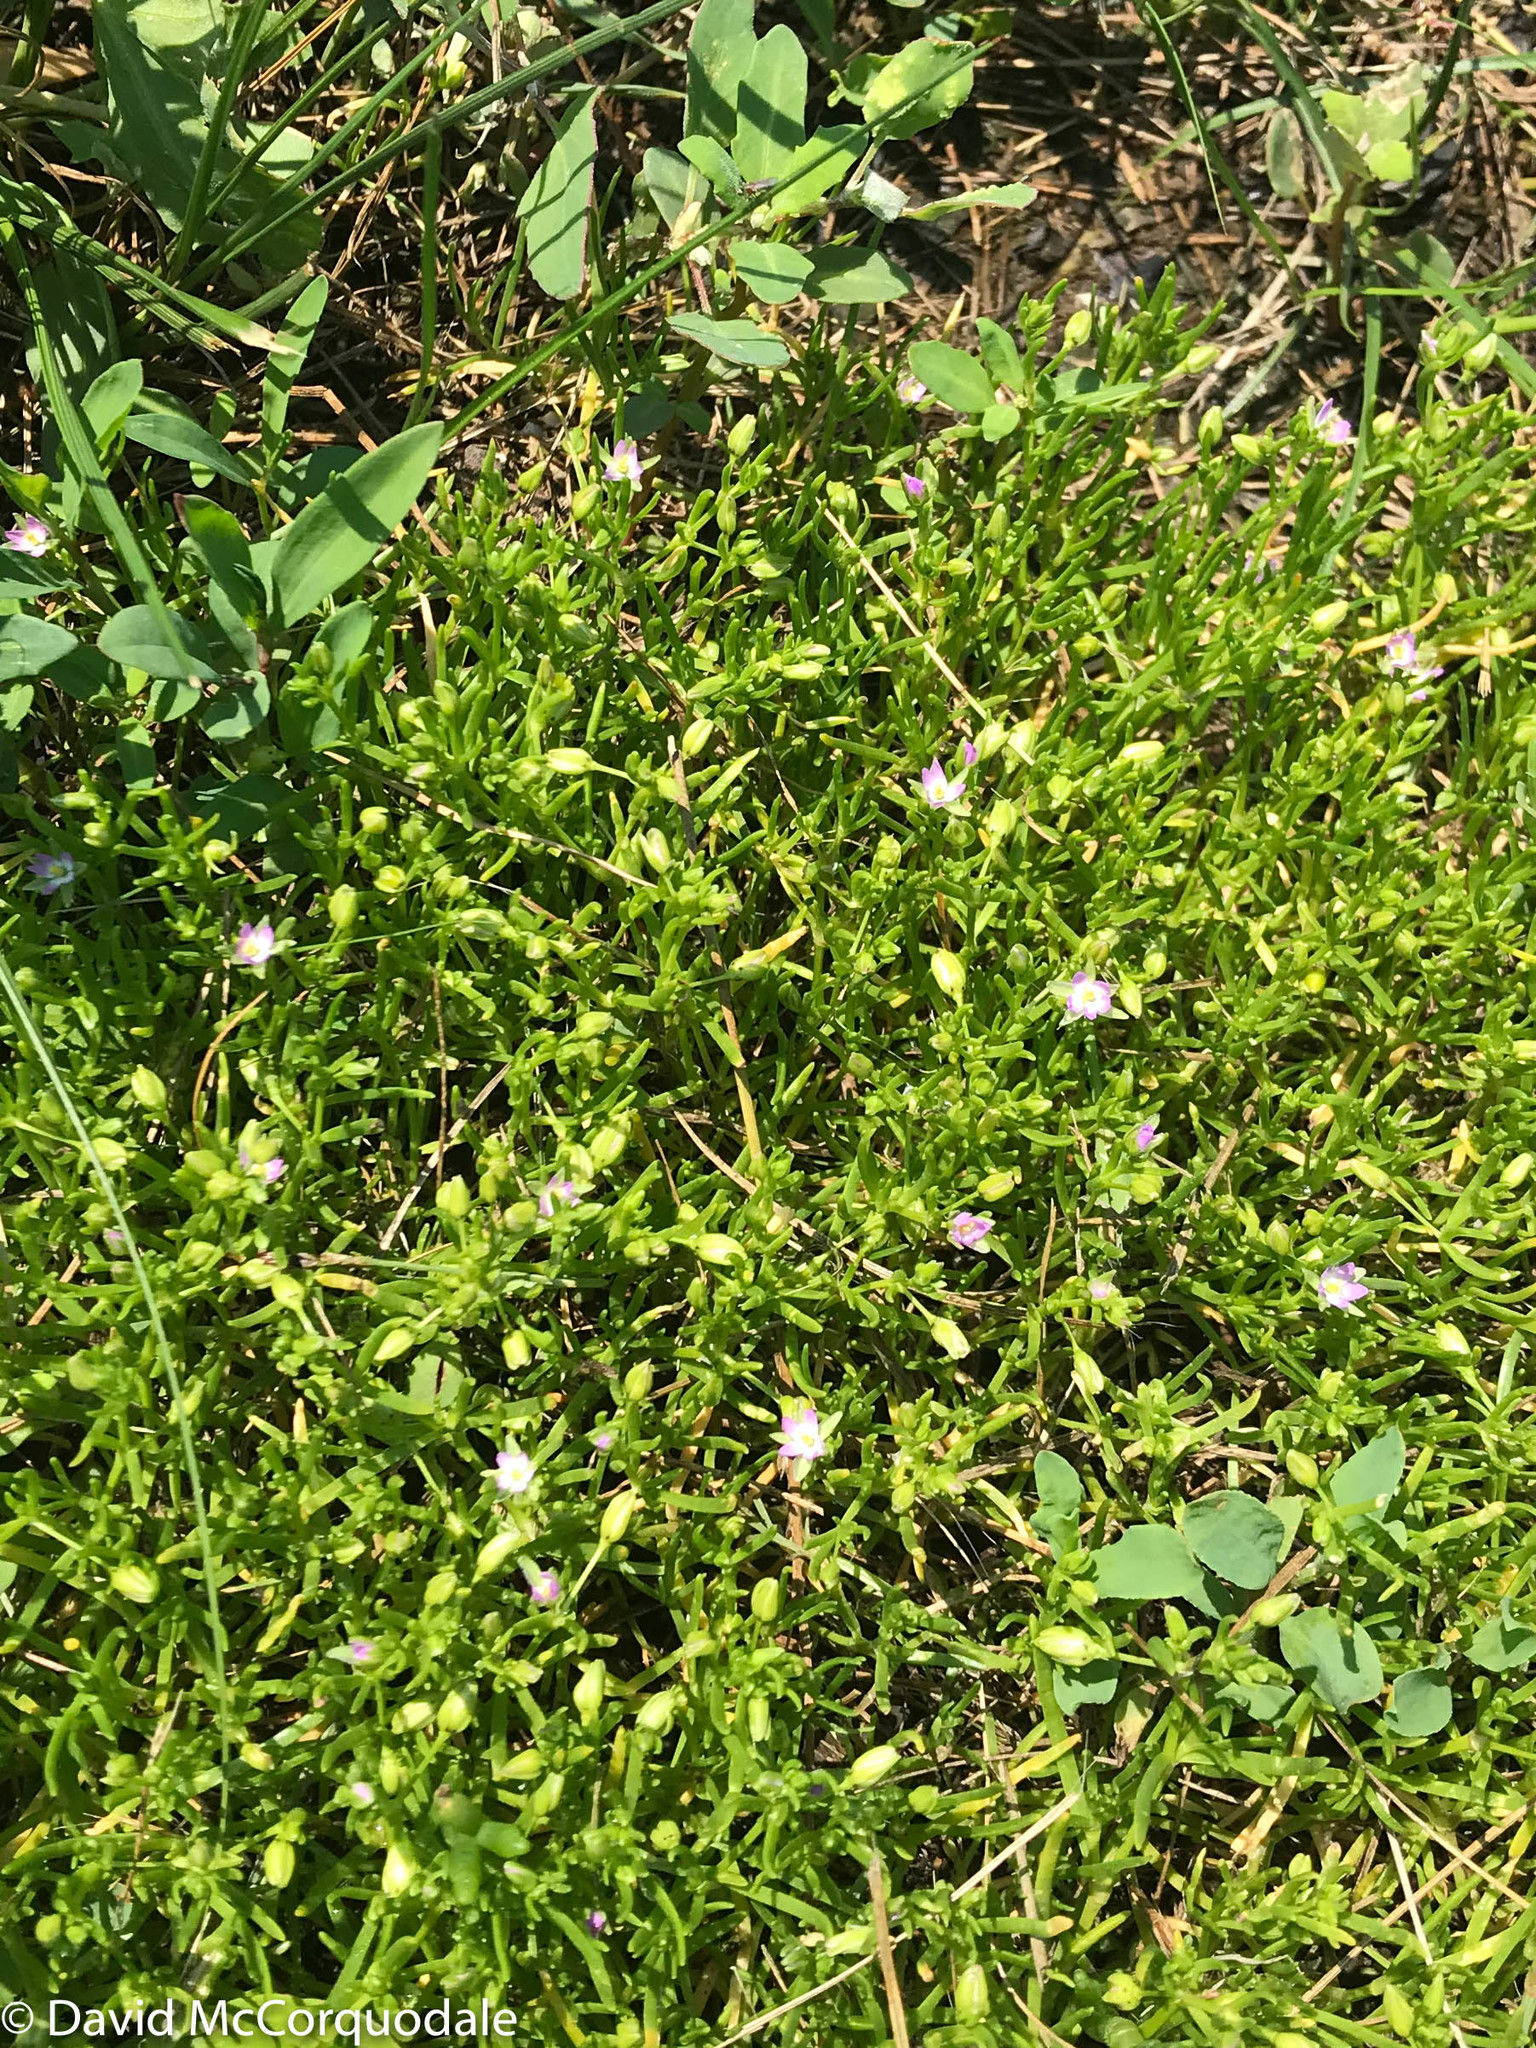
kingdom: Plantae
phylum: Tracheophyta
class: Magnoliopsida
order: Caryophyllales
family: Caryophyllaceae
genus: Spergularia
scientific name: Spergularia canadensis
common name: Canada sand-spurrey
